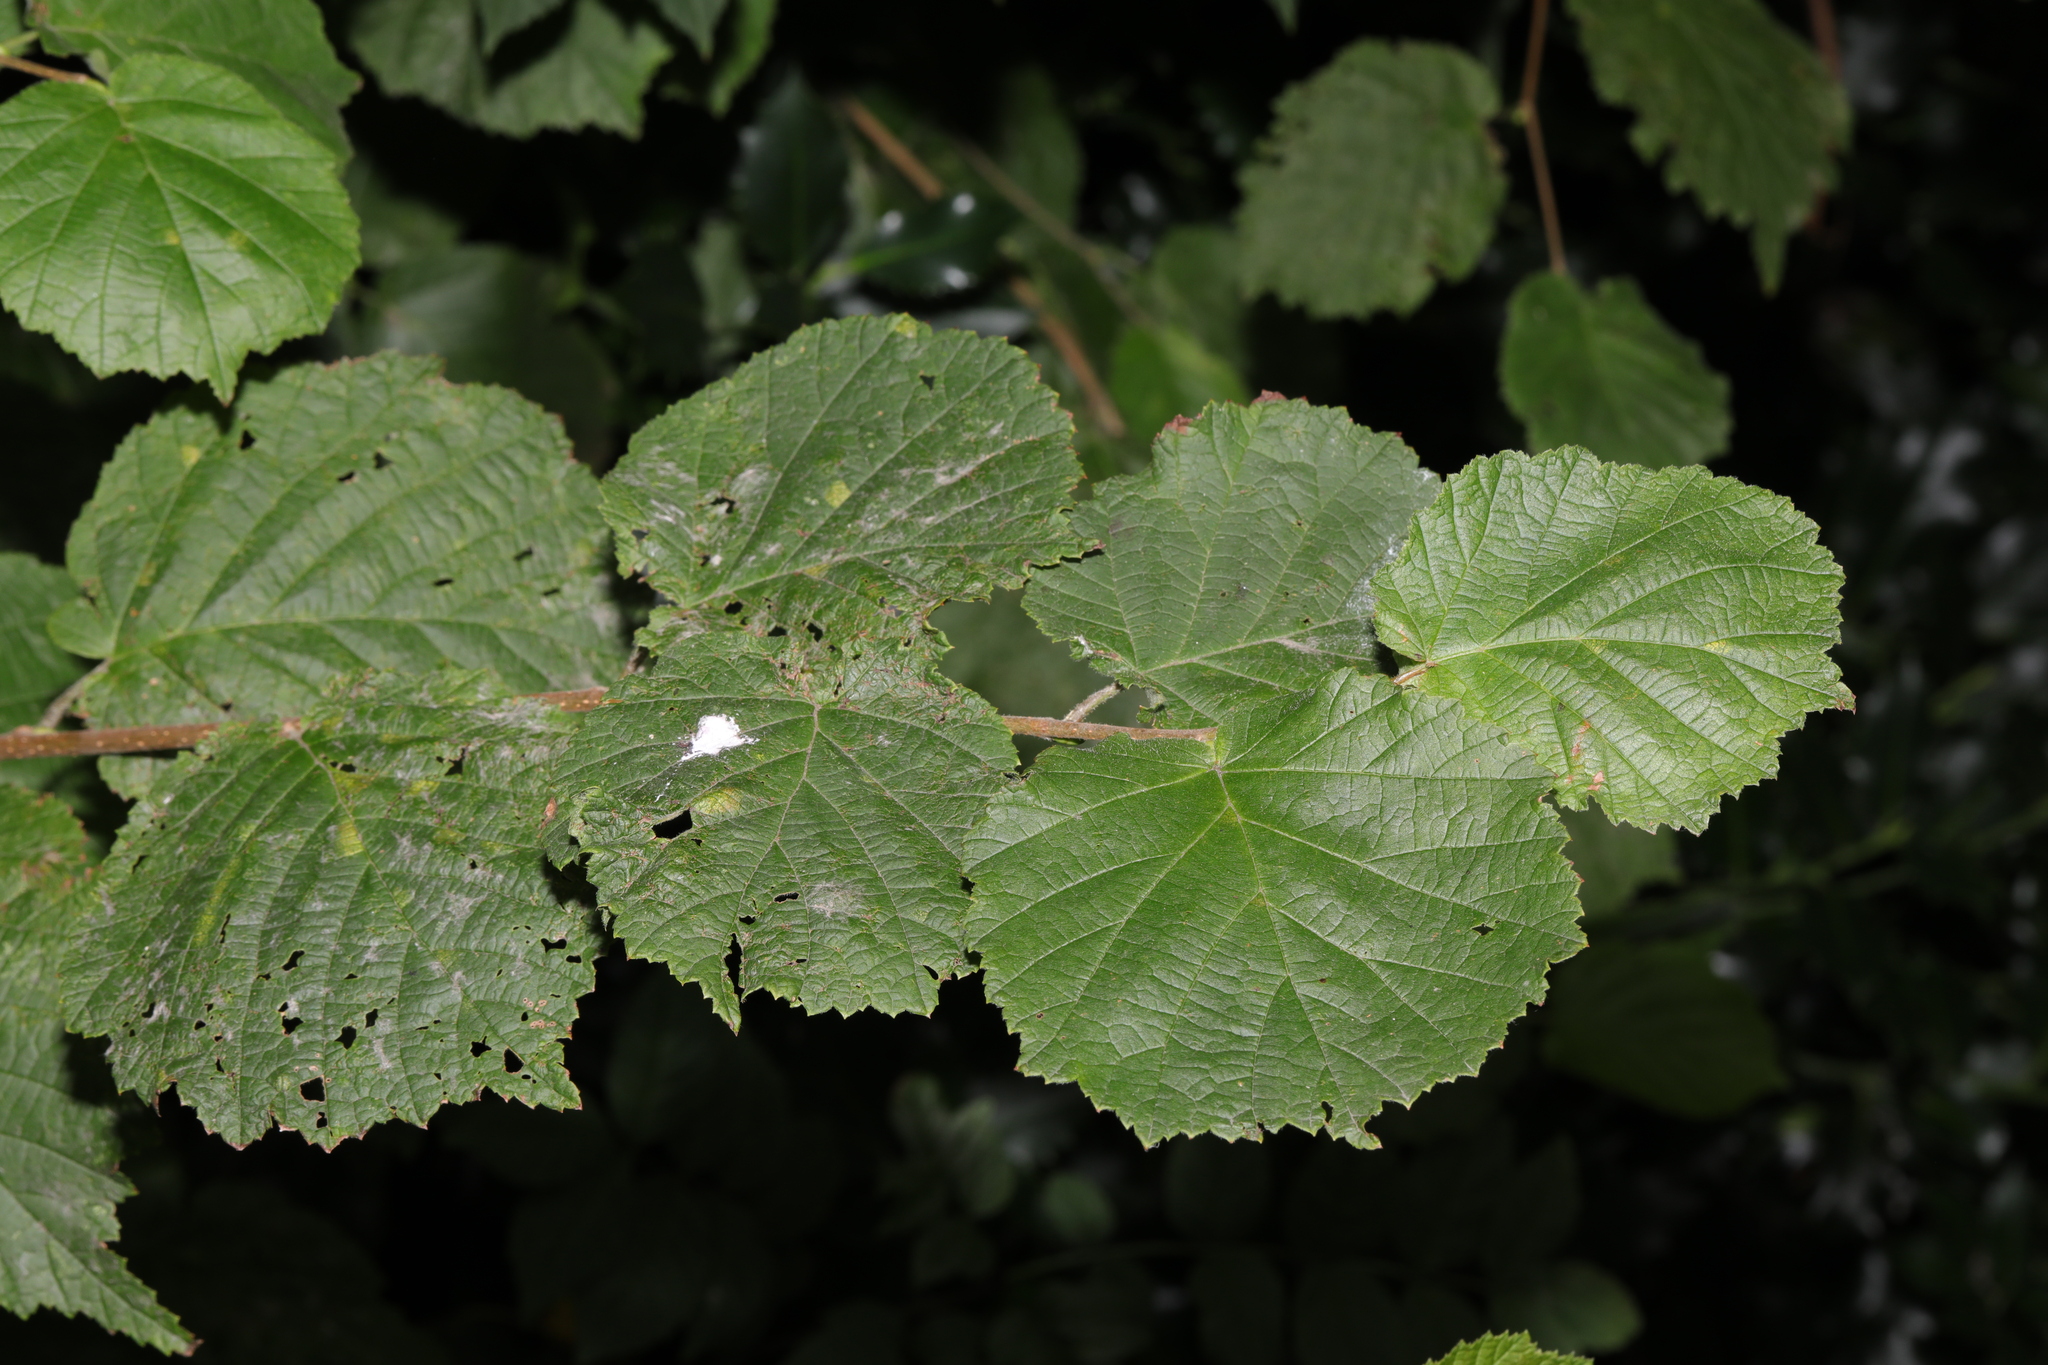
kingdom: Plantae
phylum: Tracheophyta
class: Magnoliopsida
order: Fagales
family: Betulaceae
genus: Corylus
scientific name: Corylus avellana
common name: European hazel
